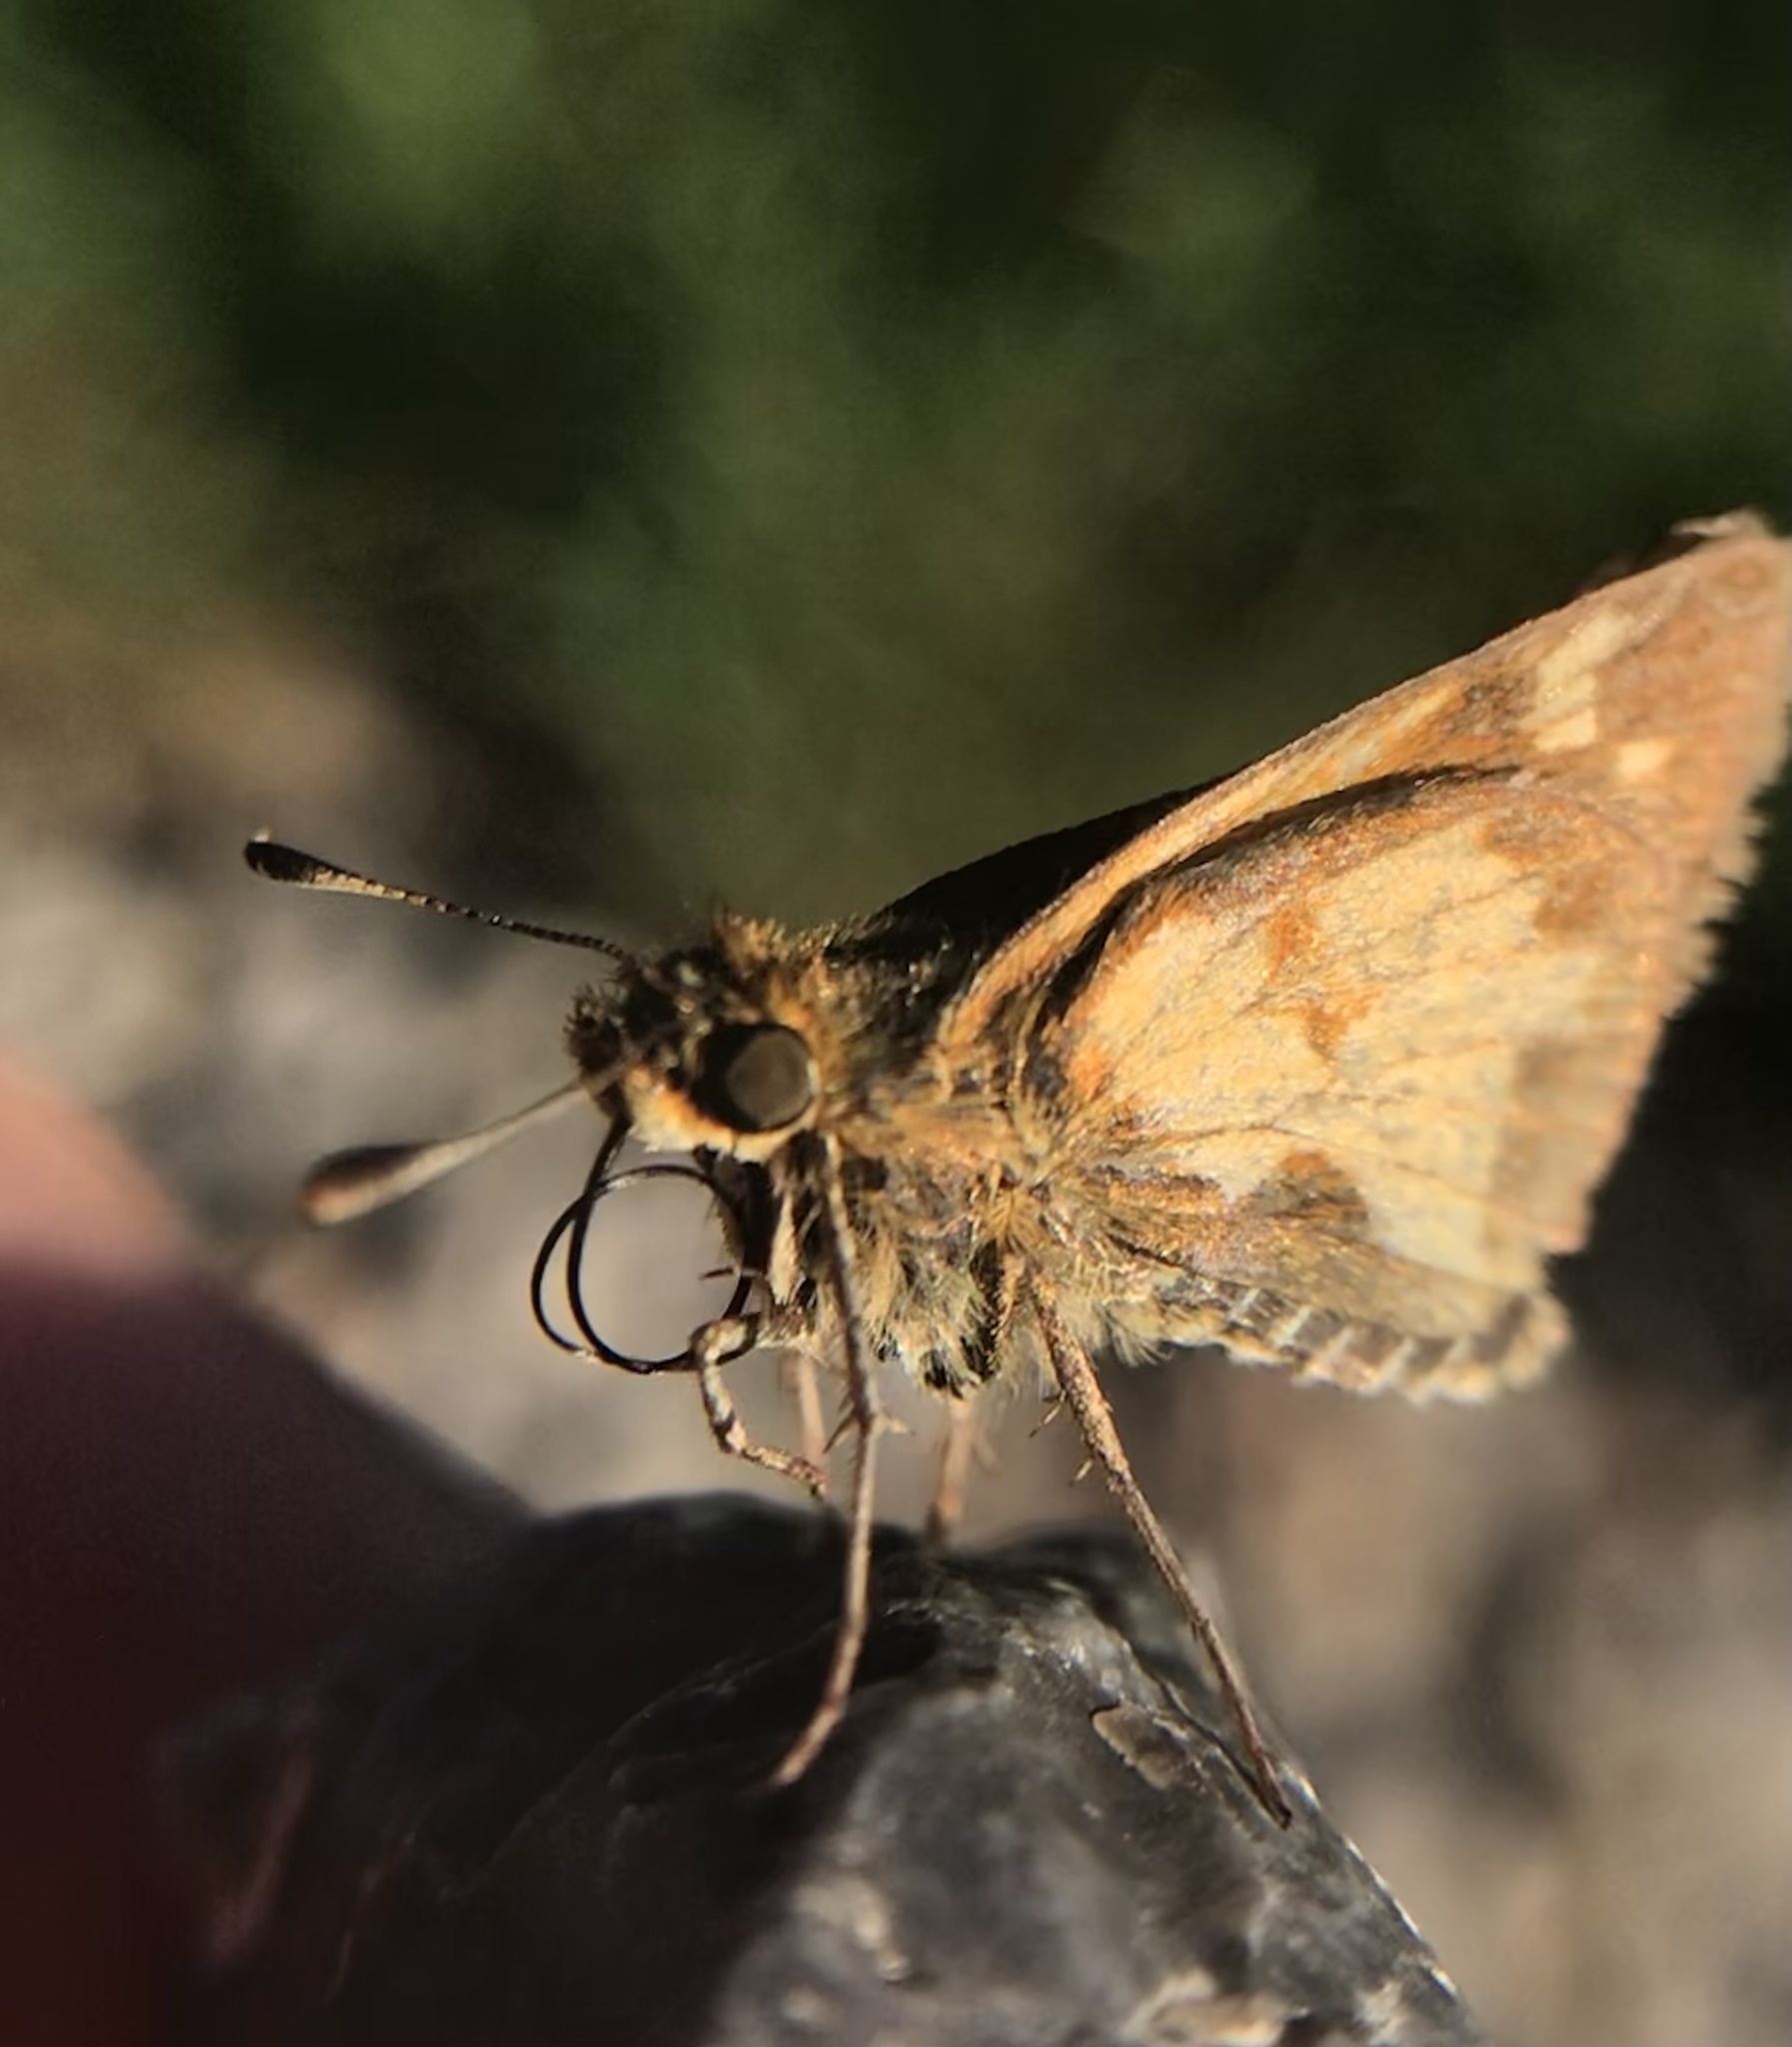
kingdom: Animalia
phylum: Arthropoda
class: Insecta
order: Lepidoptera
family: Hesperiidae
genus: Polites
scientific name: Polites coras
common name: Peck's skipper
